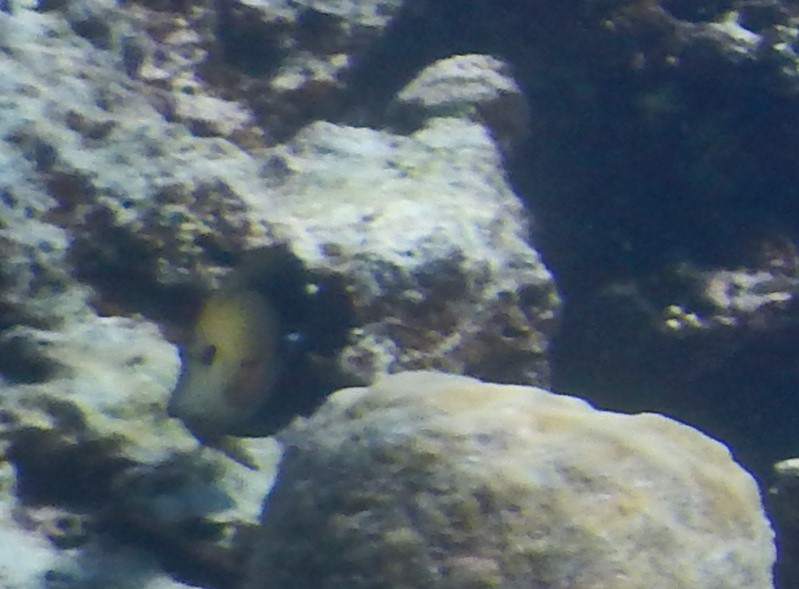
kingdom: Animalia
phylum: Chordata
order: Perciformes
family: Acanthuridae
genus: Zebrasoma
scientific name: Zebrasoma scopas
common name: Twotone tang
